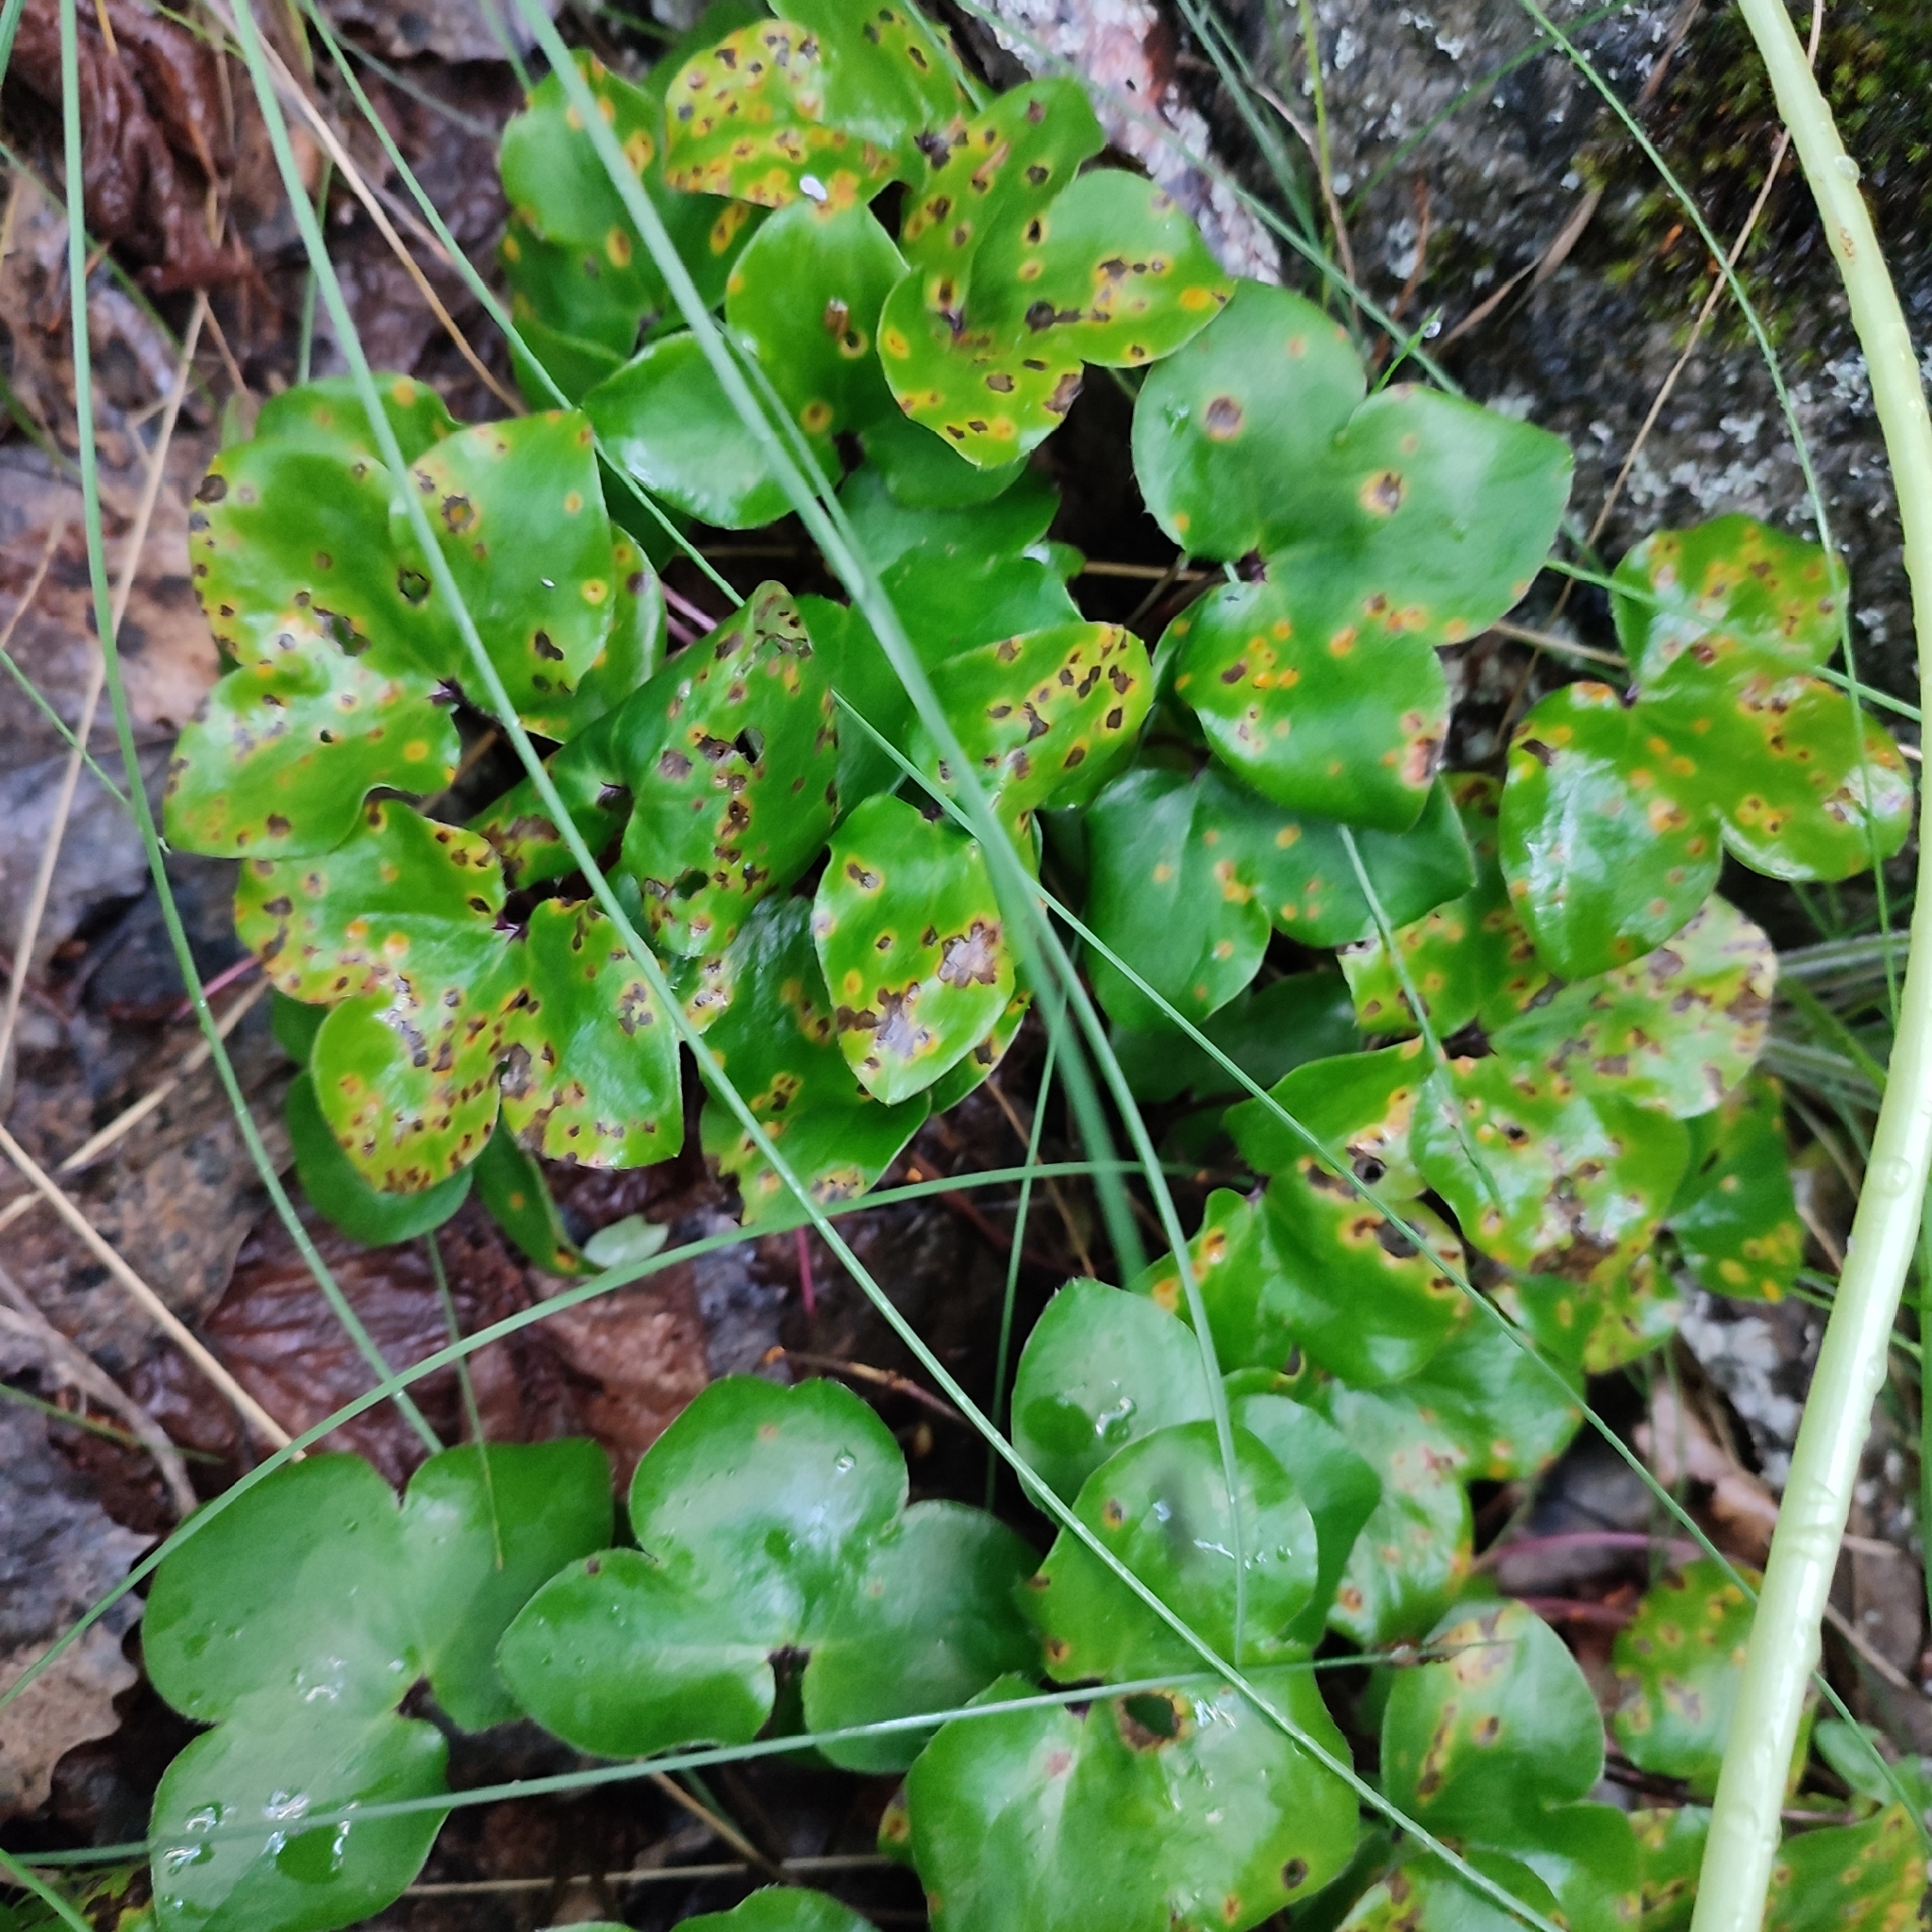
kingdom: Plantae
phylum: Tracheophyta
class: Magnoliopsida
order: Ranunculales
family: Ranunculaceae
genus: Hepatica
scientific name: Hepatica nobilis
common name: Liverleaf
